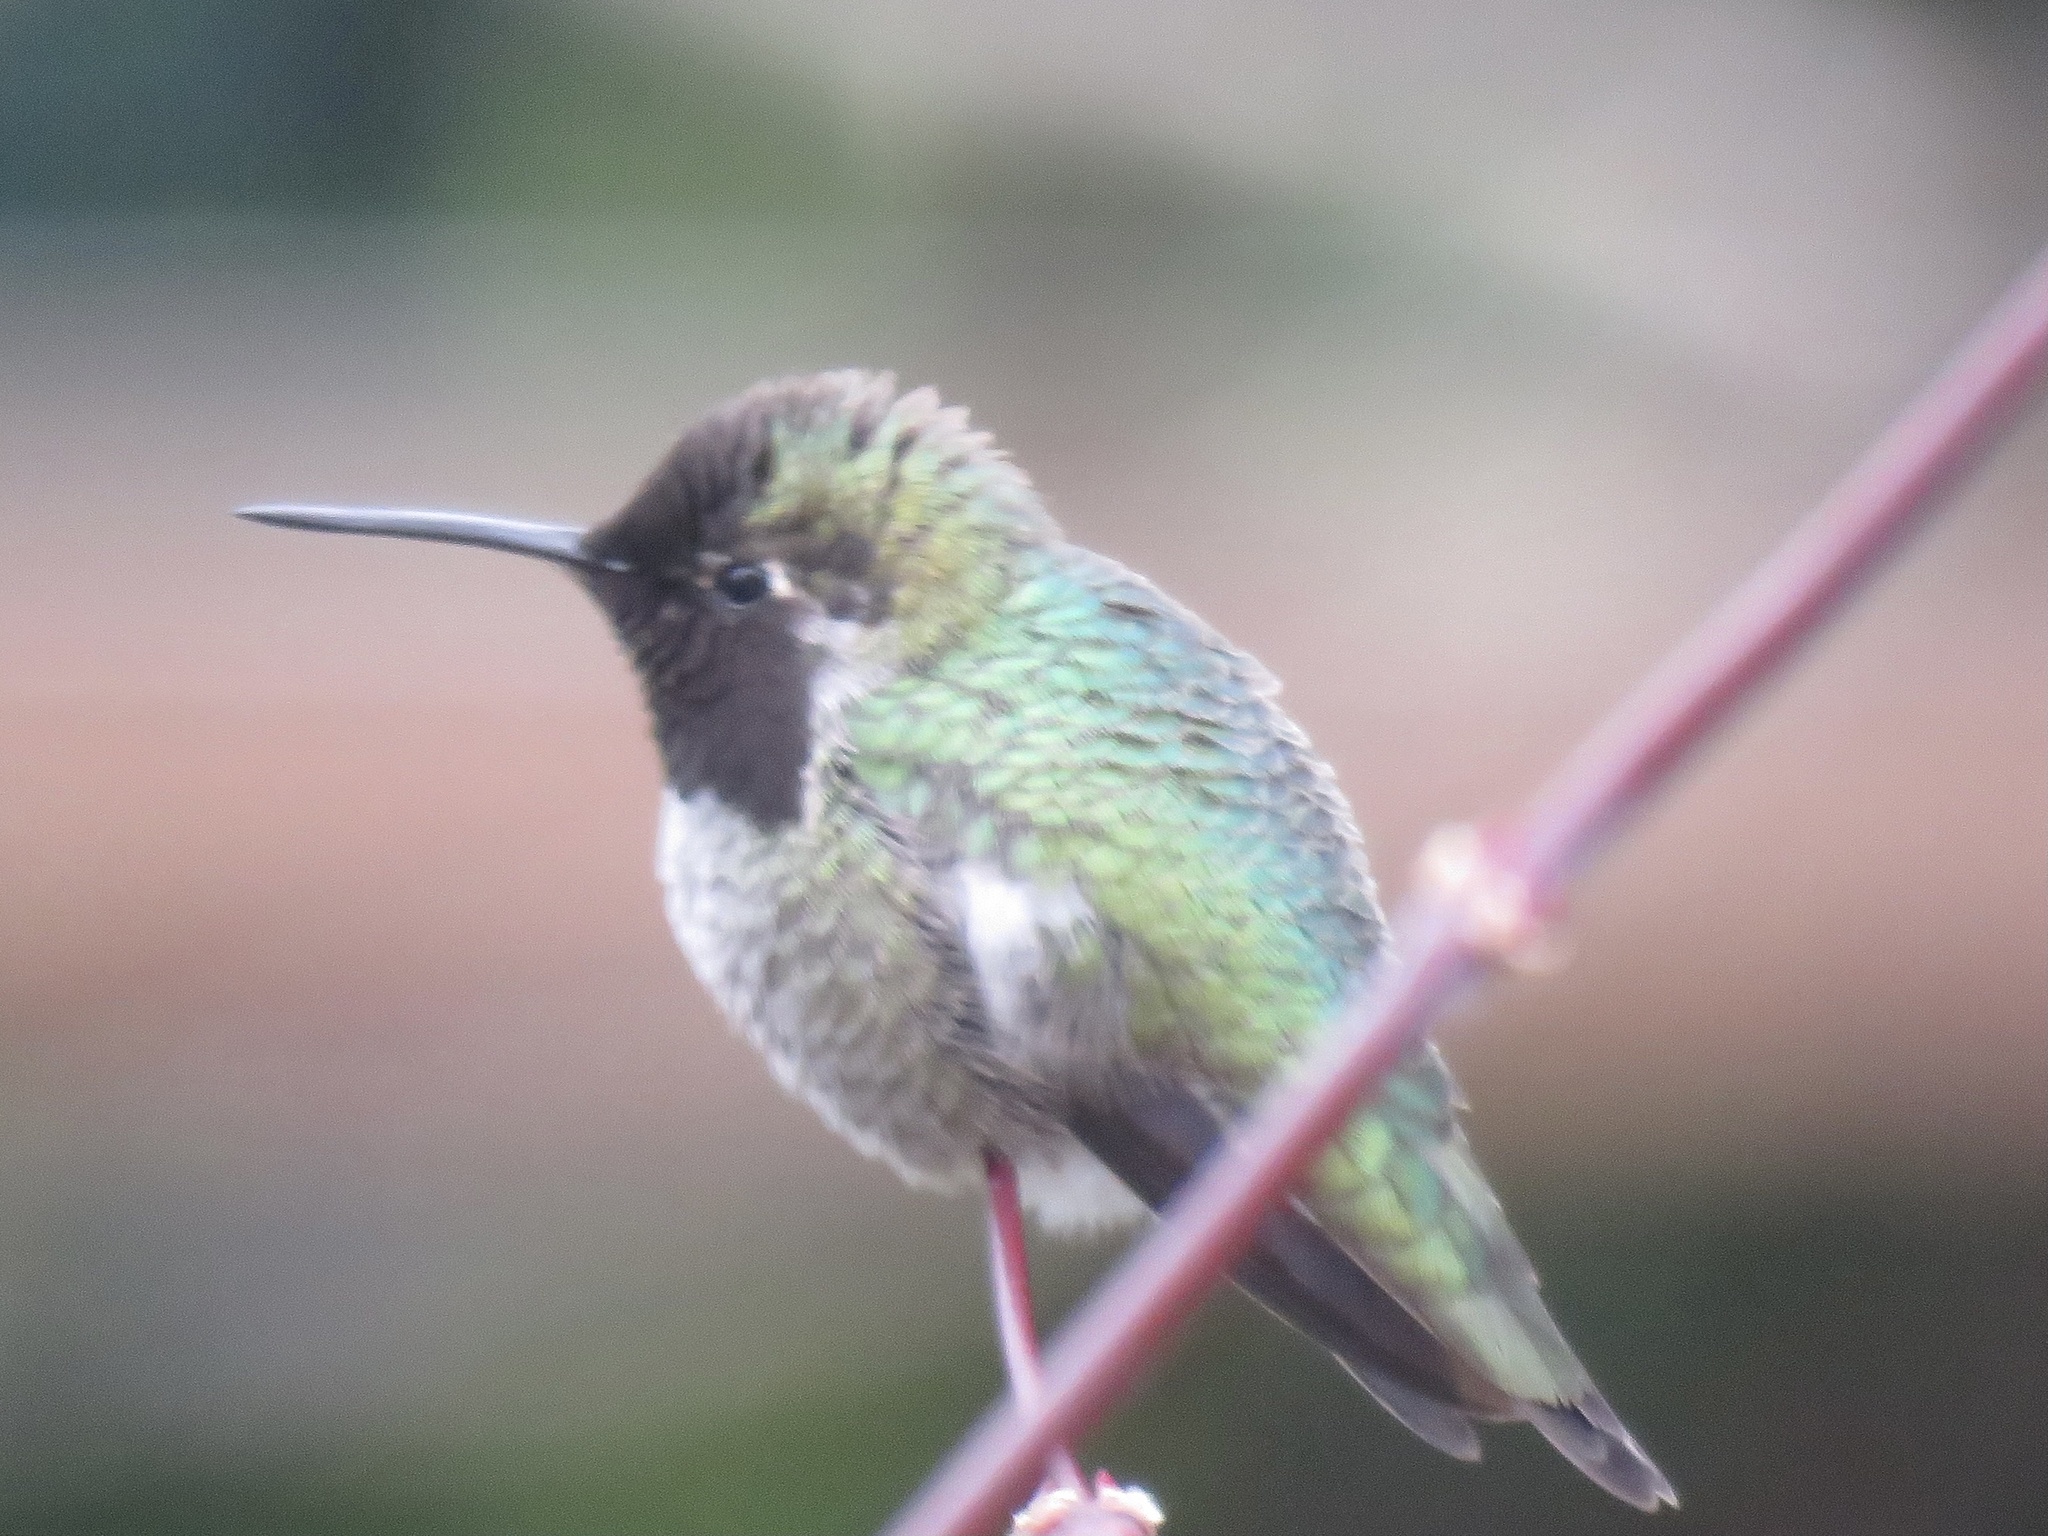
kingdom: Animalia
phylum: Chordata
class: Aves
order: Apodiformes
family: Trochilidae
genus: Calypte
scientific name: Calypte anna
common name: Anna's hummingbird
